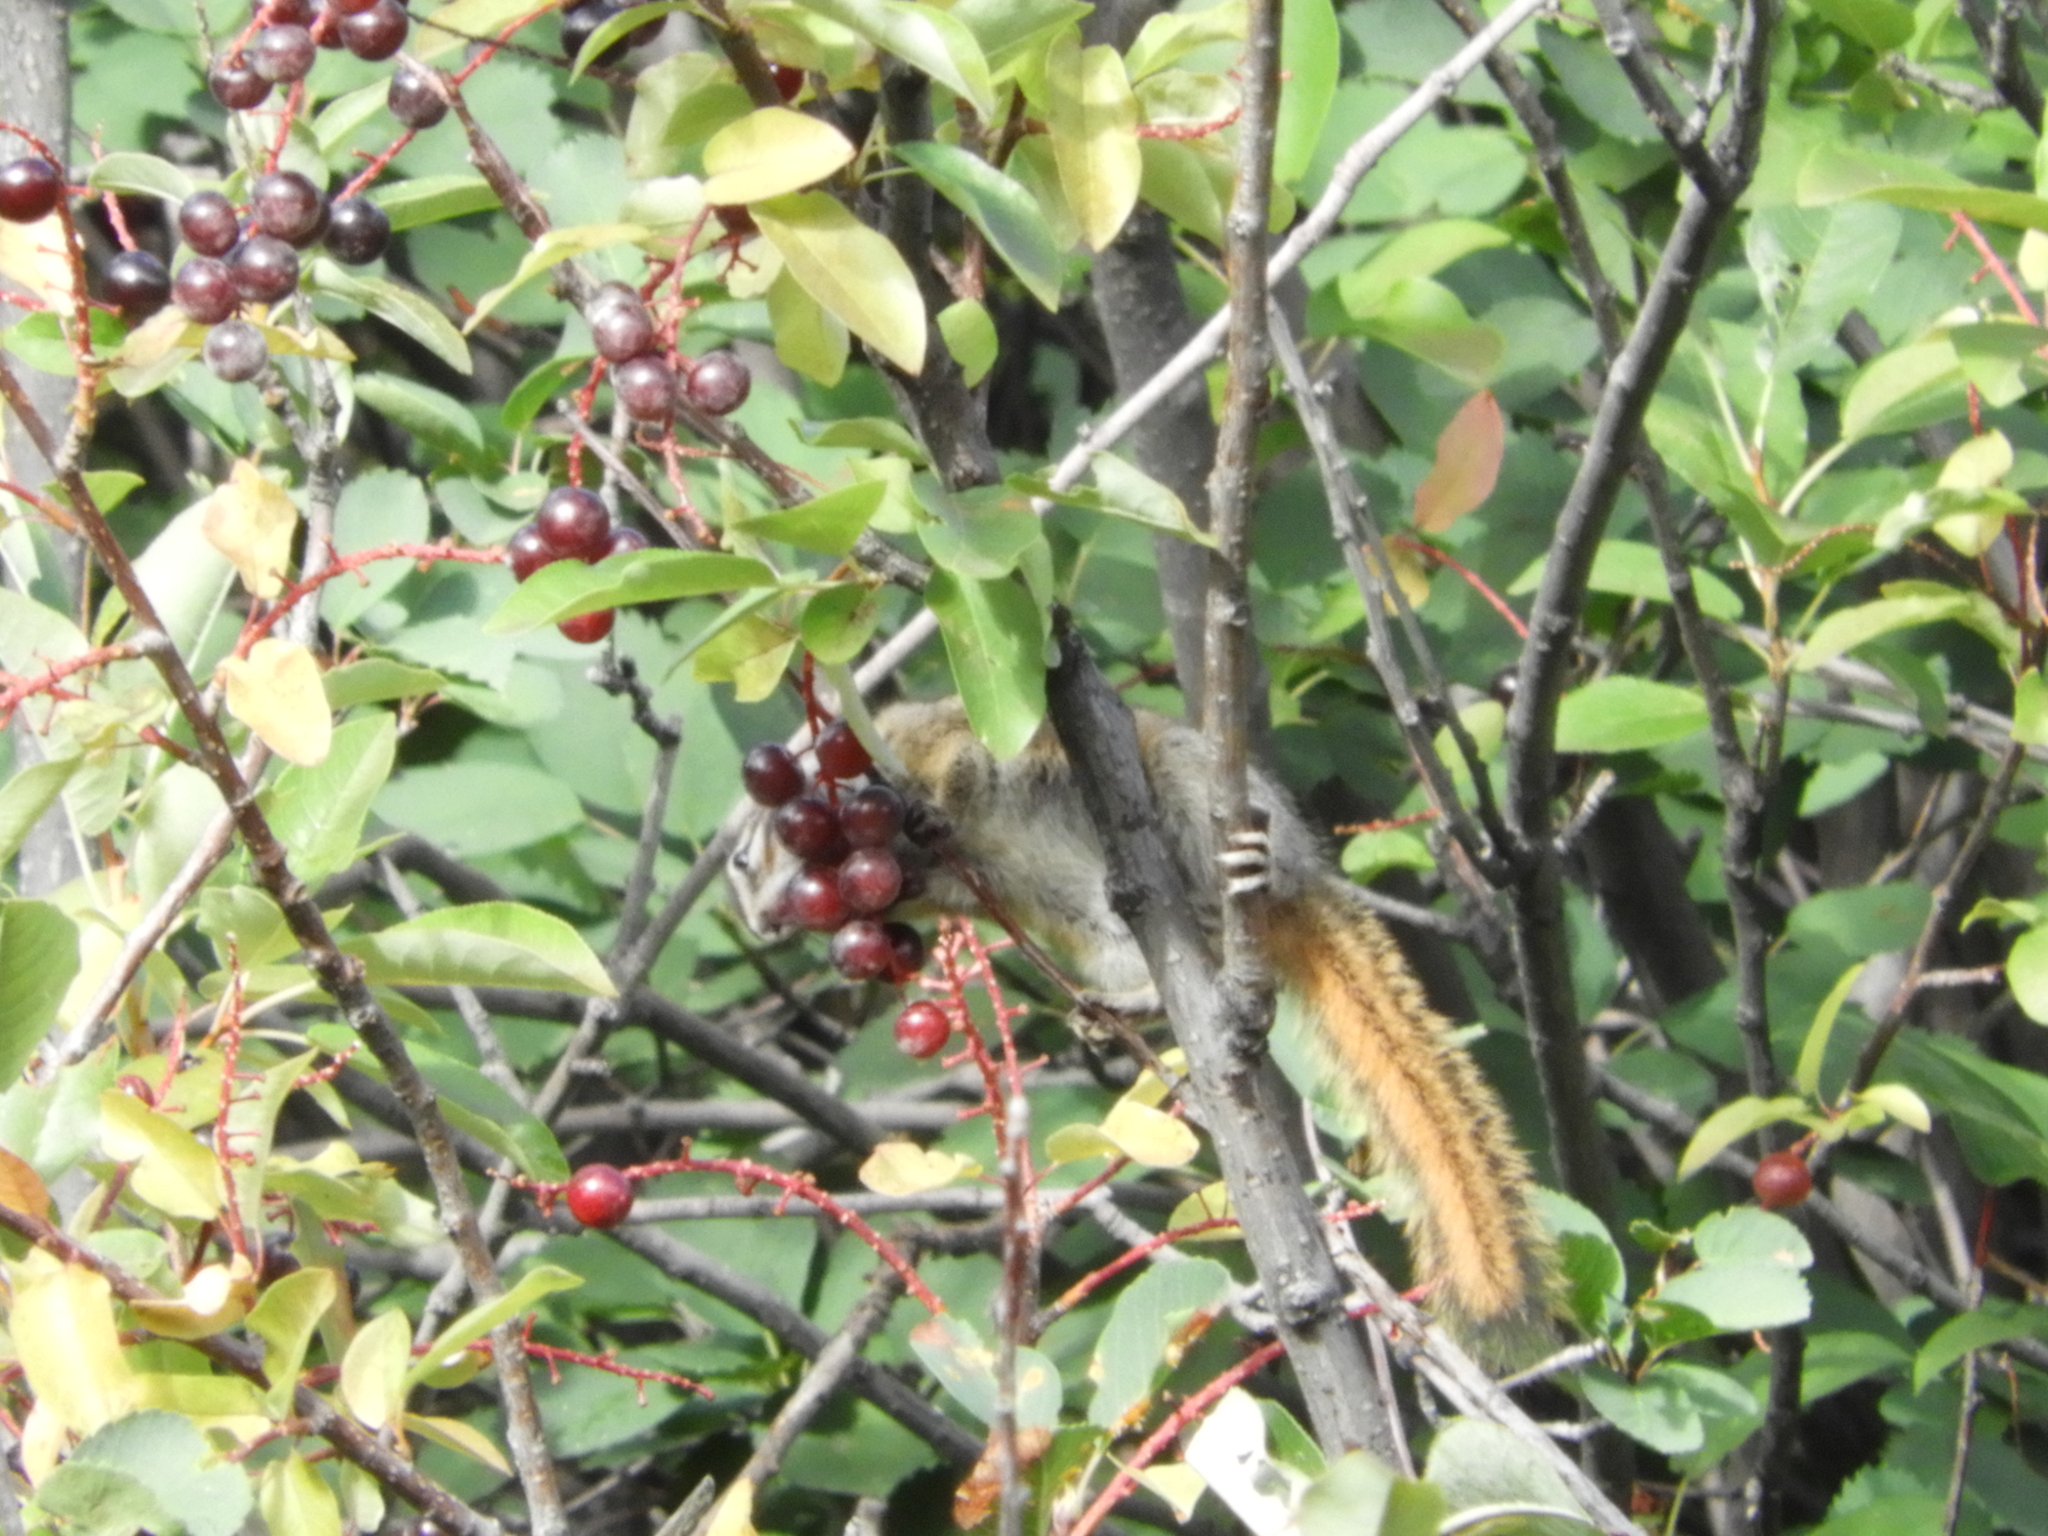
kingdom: Animalia
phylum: Chordata
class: Mammalia
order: Rodentia
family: Sciuridae
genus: Tamias
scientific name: Tamias minimus
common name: Least chipmunk
